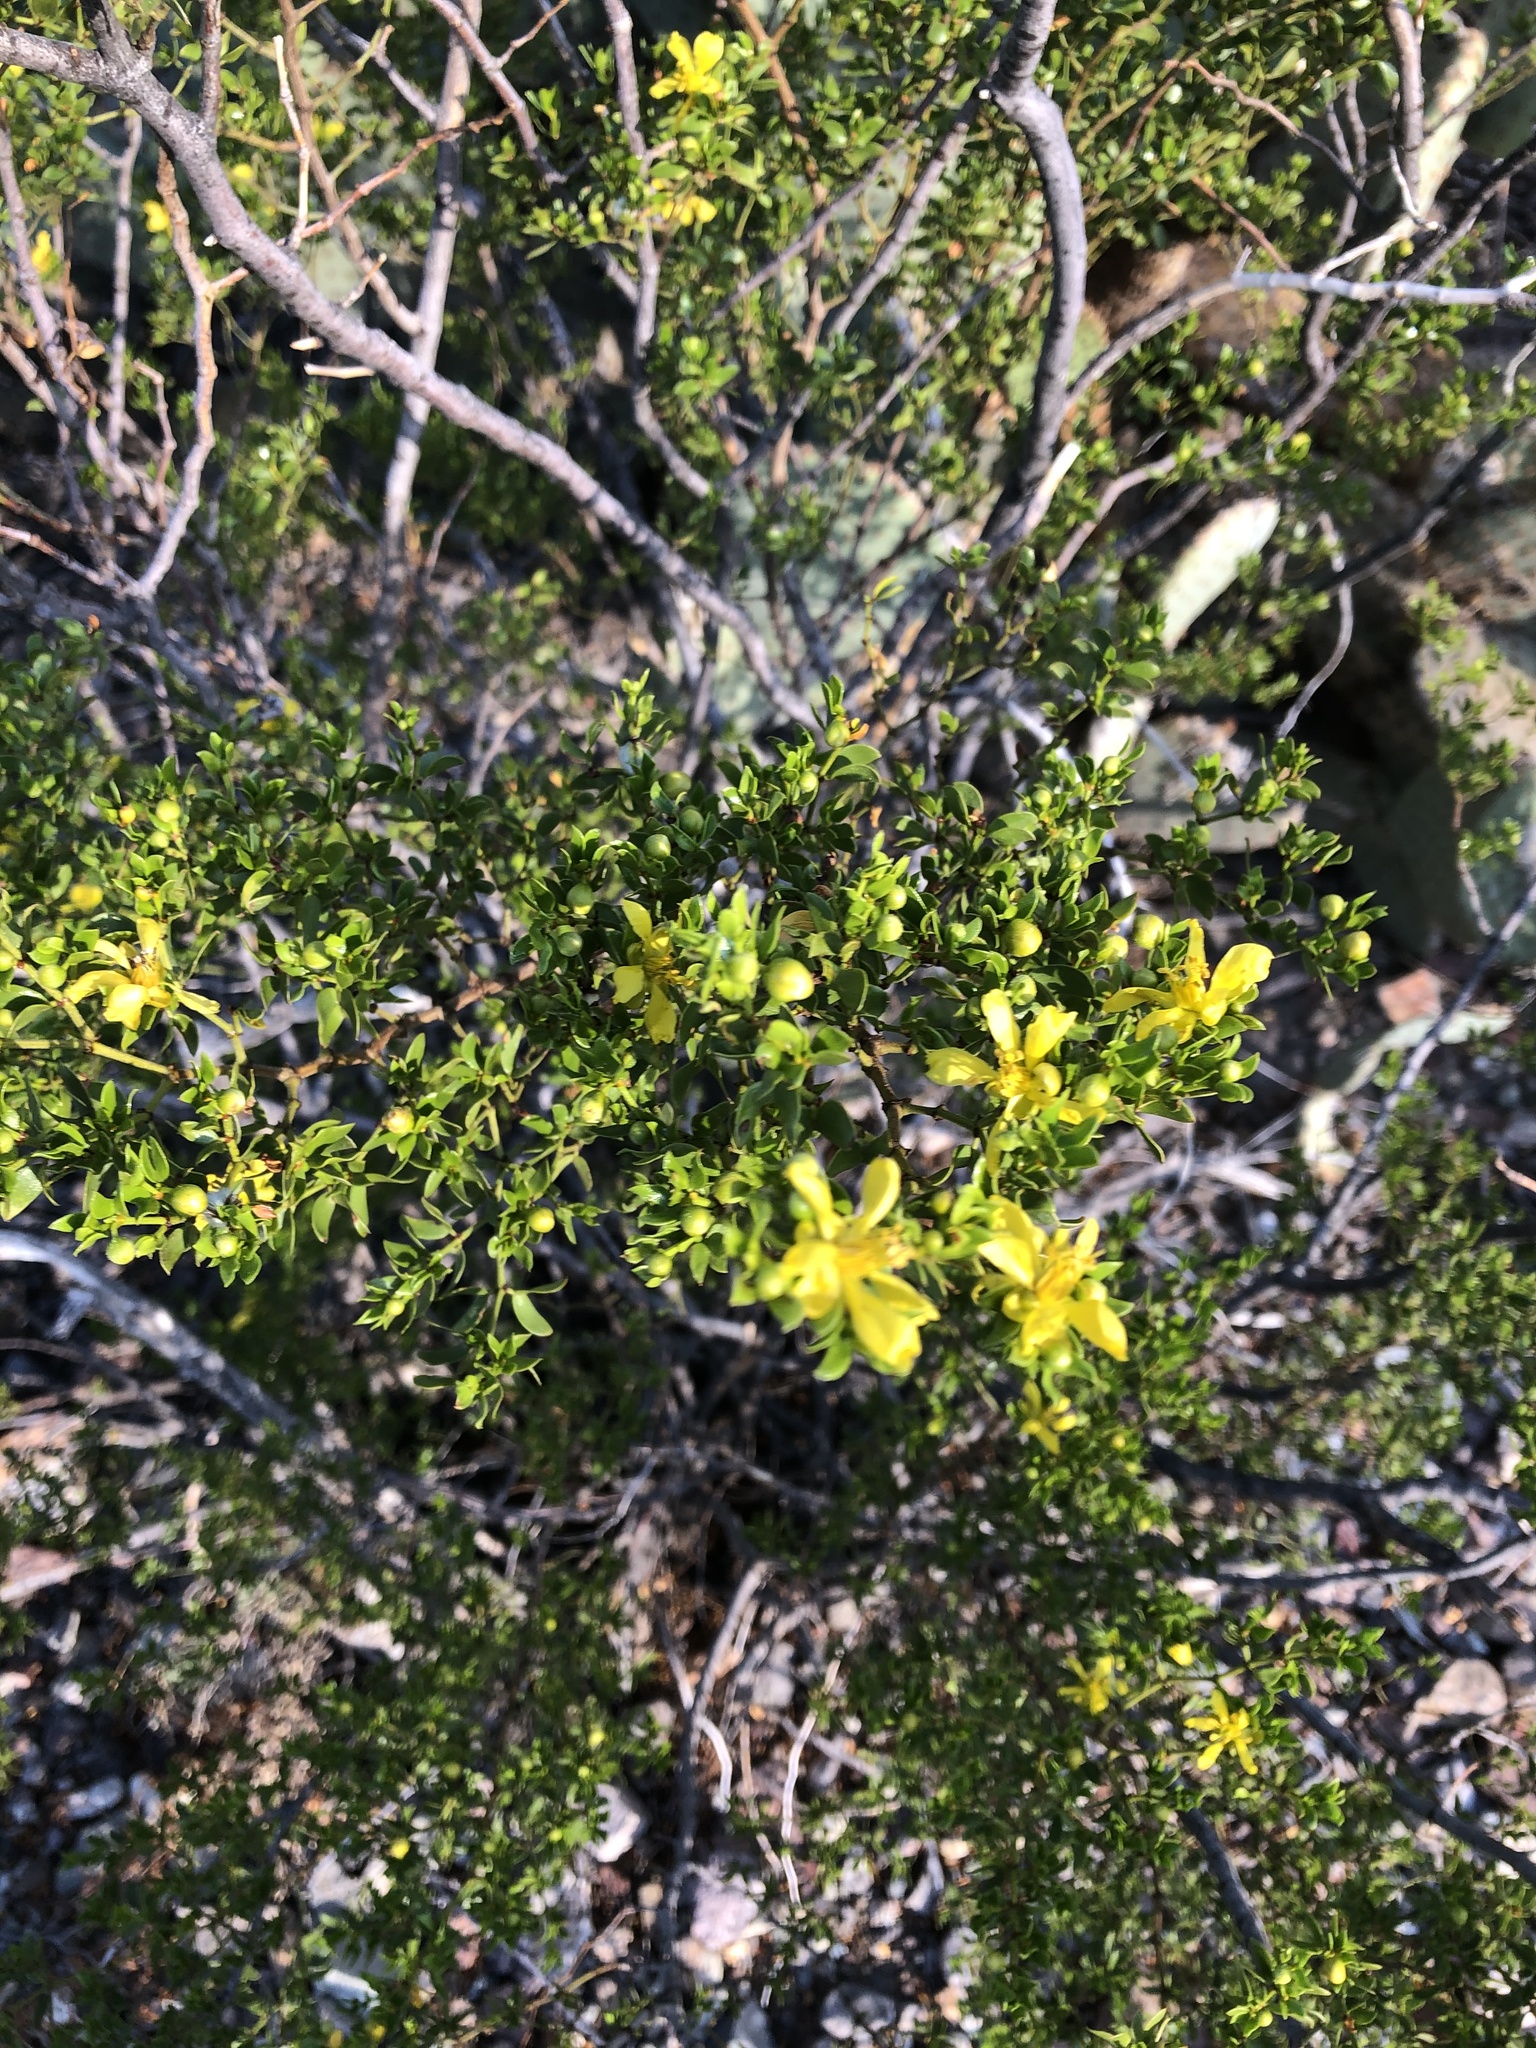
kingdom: Plantae
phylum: Tracheophyta
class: Magnoliopsida
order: Zygophyllales
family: Zygophyllaceae
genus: Larrea
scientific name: Larrea tridentata
